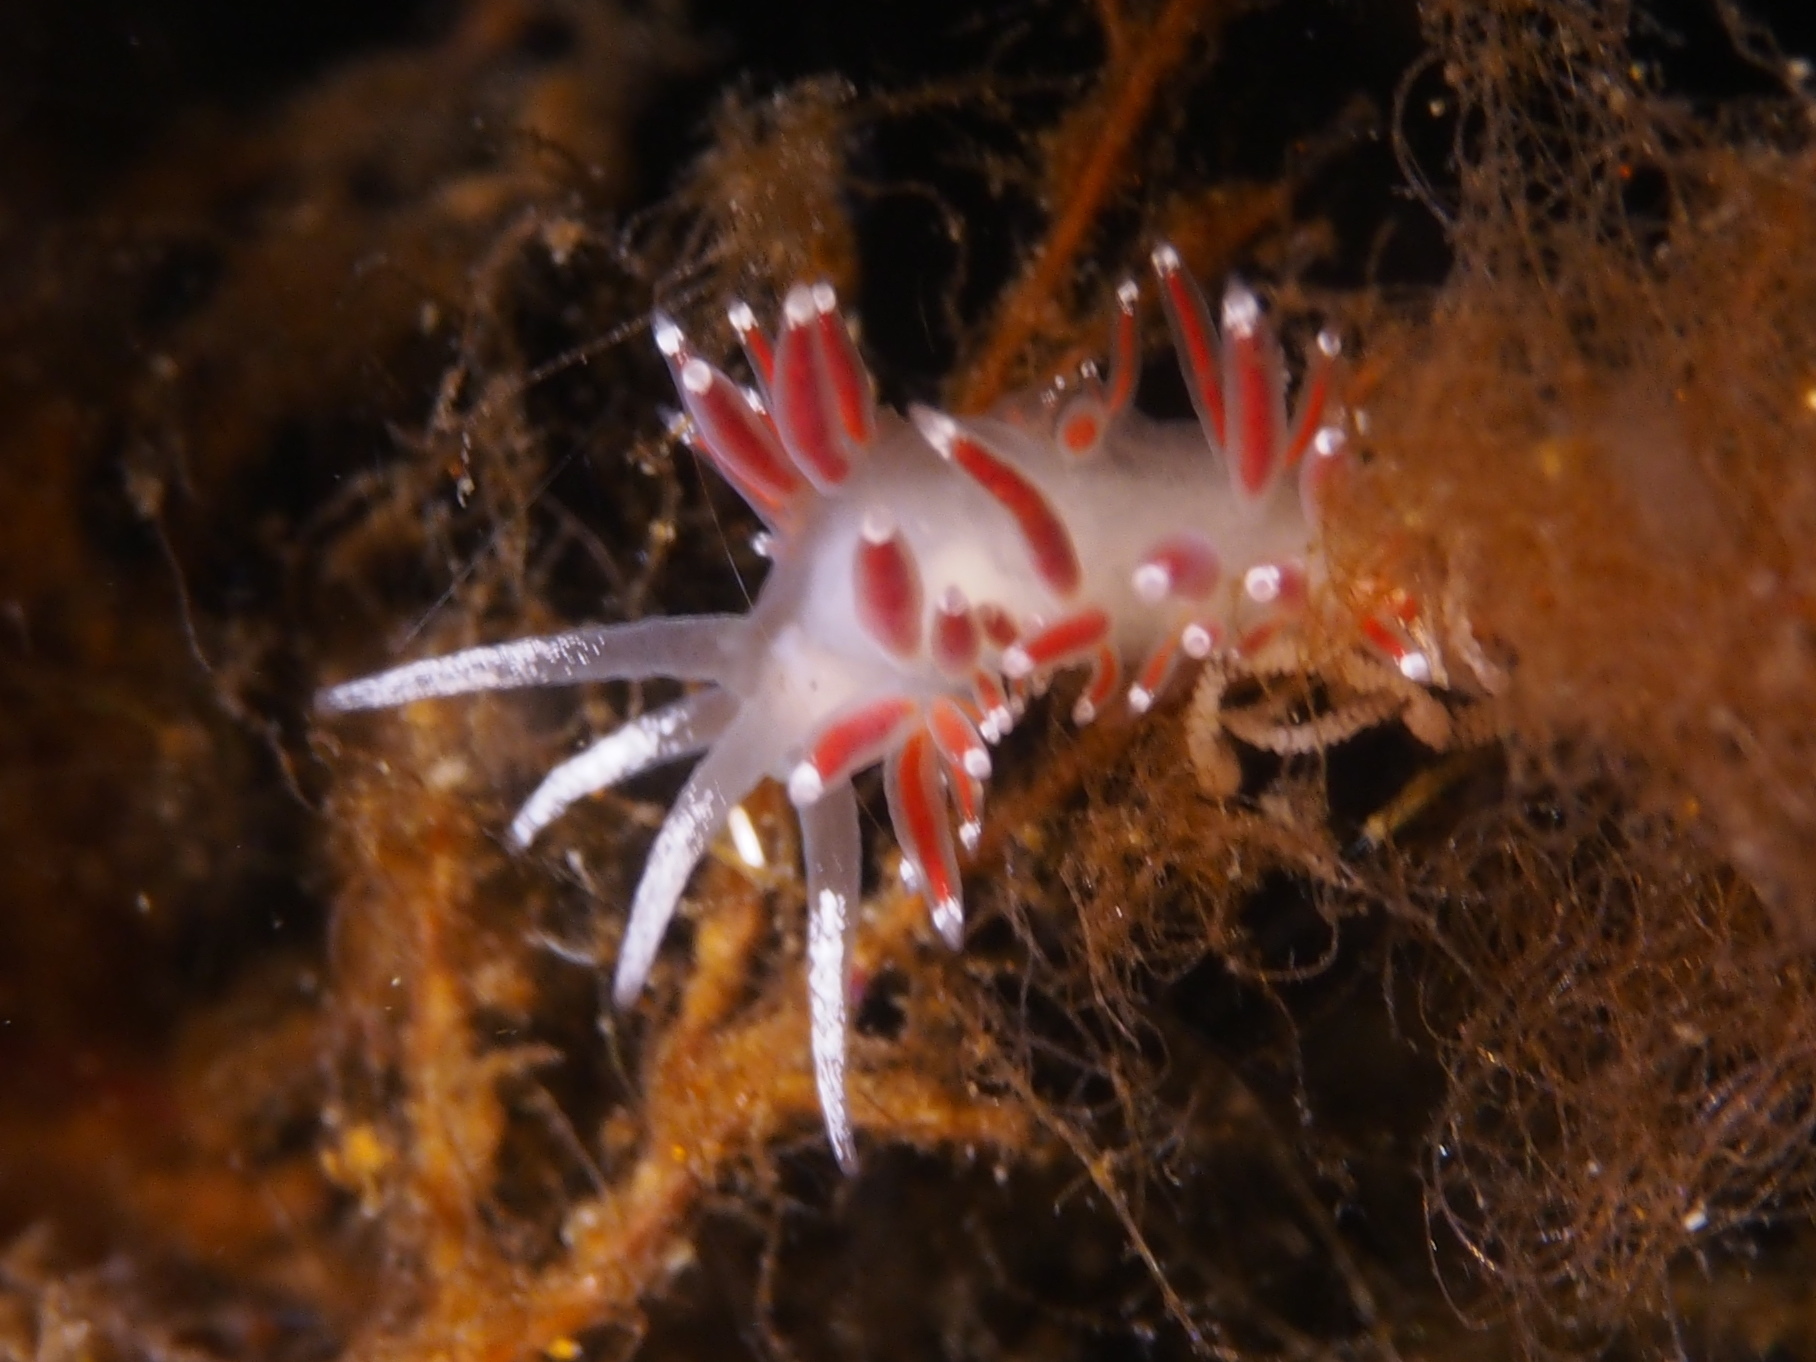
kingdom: Animalia
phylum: Mollusca
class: Gastropoda
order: Nudibranchia
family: Coryphellidae
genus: Coryphella
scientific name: Coryphella gracilis
